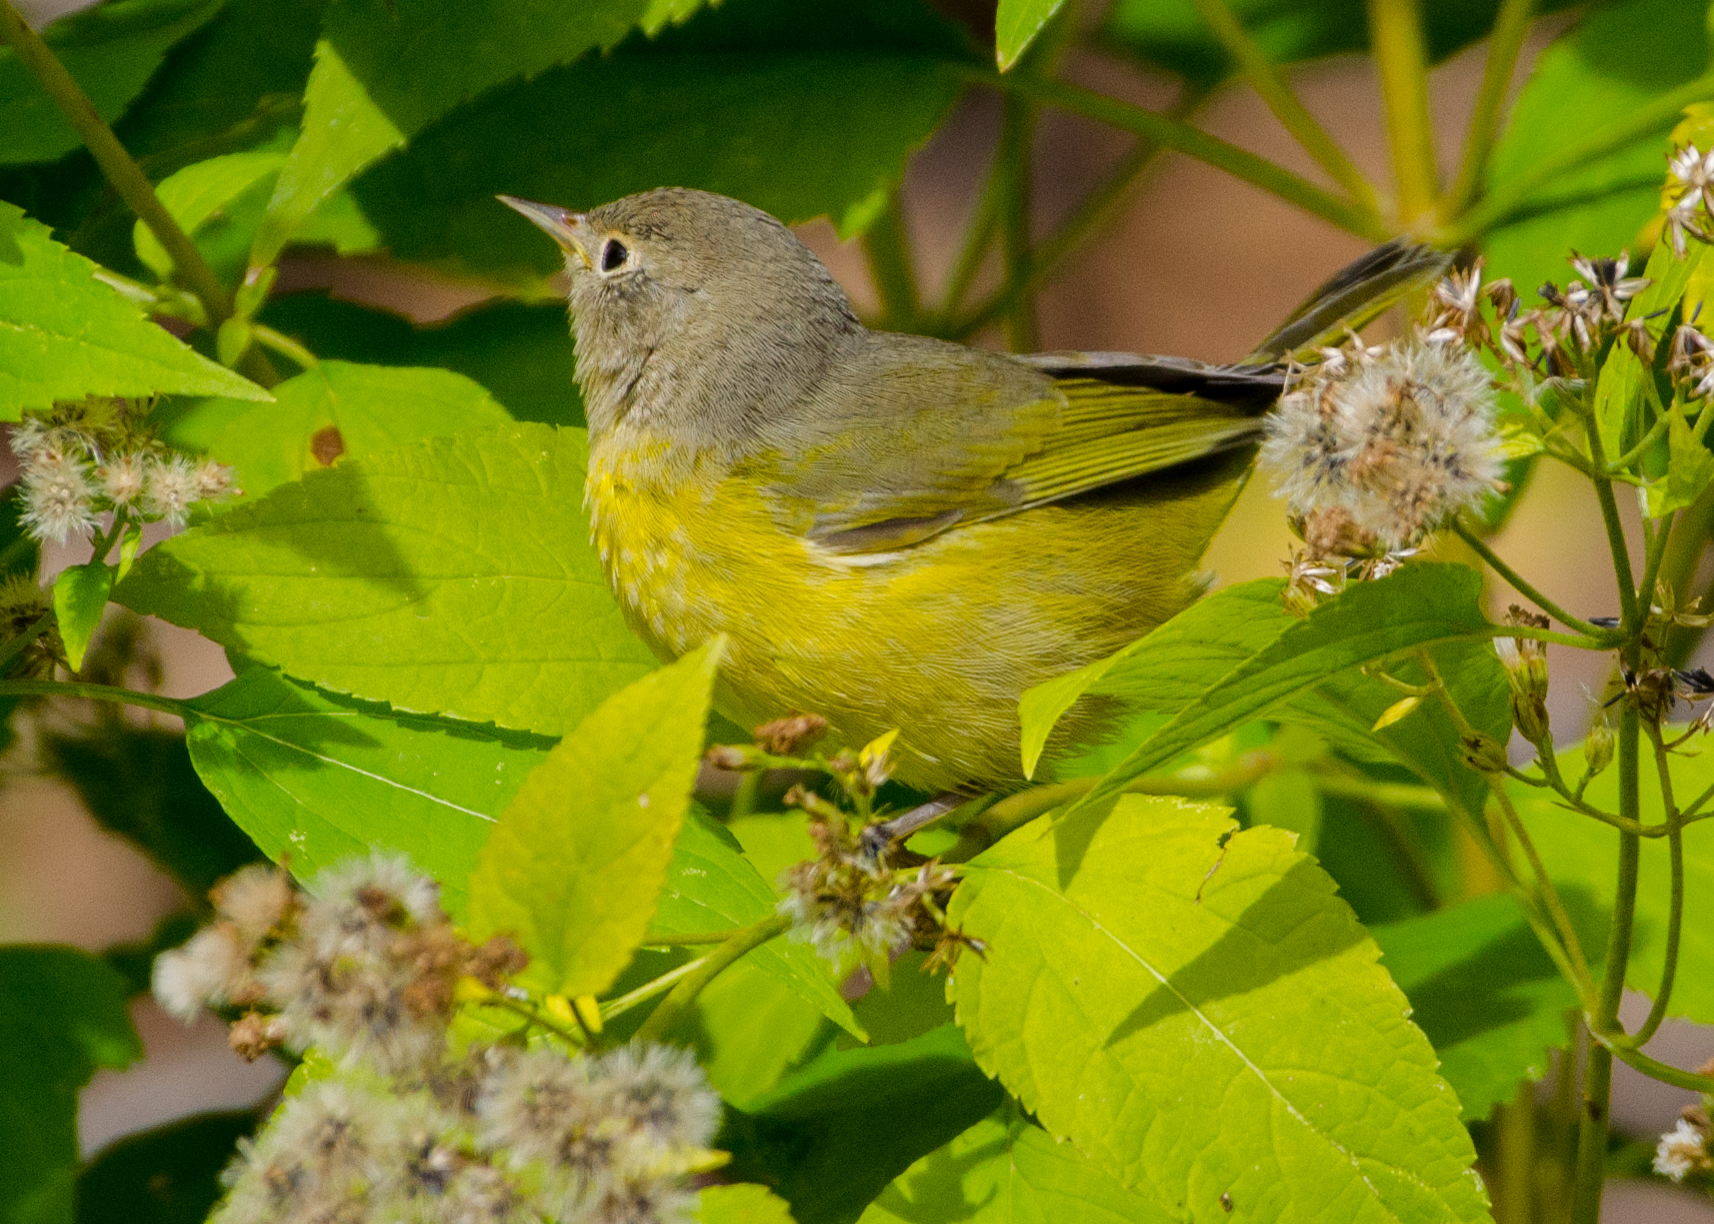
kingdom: Animalia
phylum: Chordata
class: Aves
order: Passeriformes
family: Parulidae
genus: Leiothlypis
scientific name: Leiothlypis ruficapilla
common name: Nashville warbler
